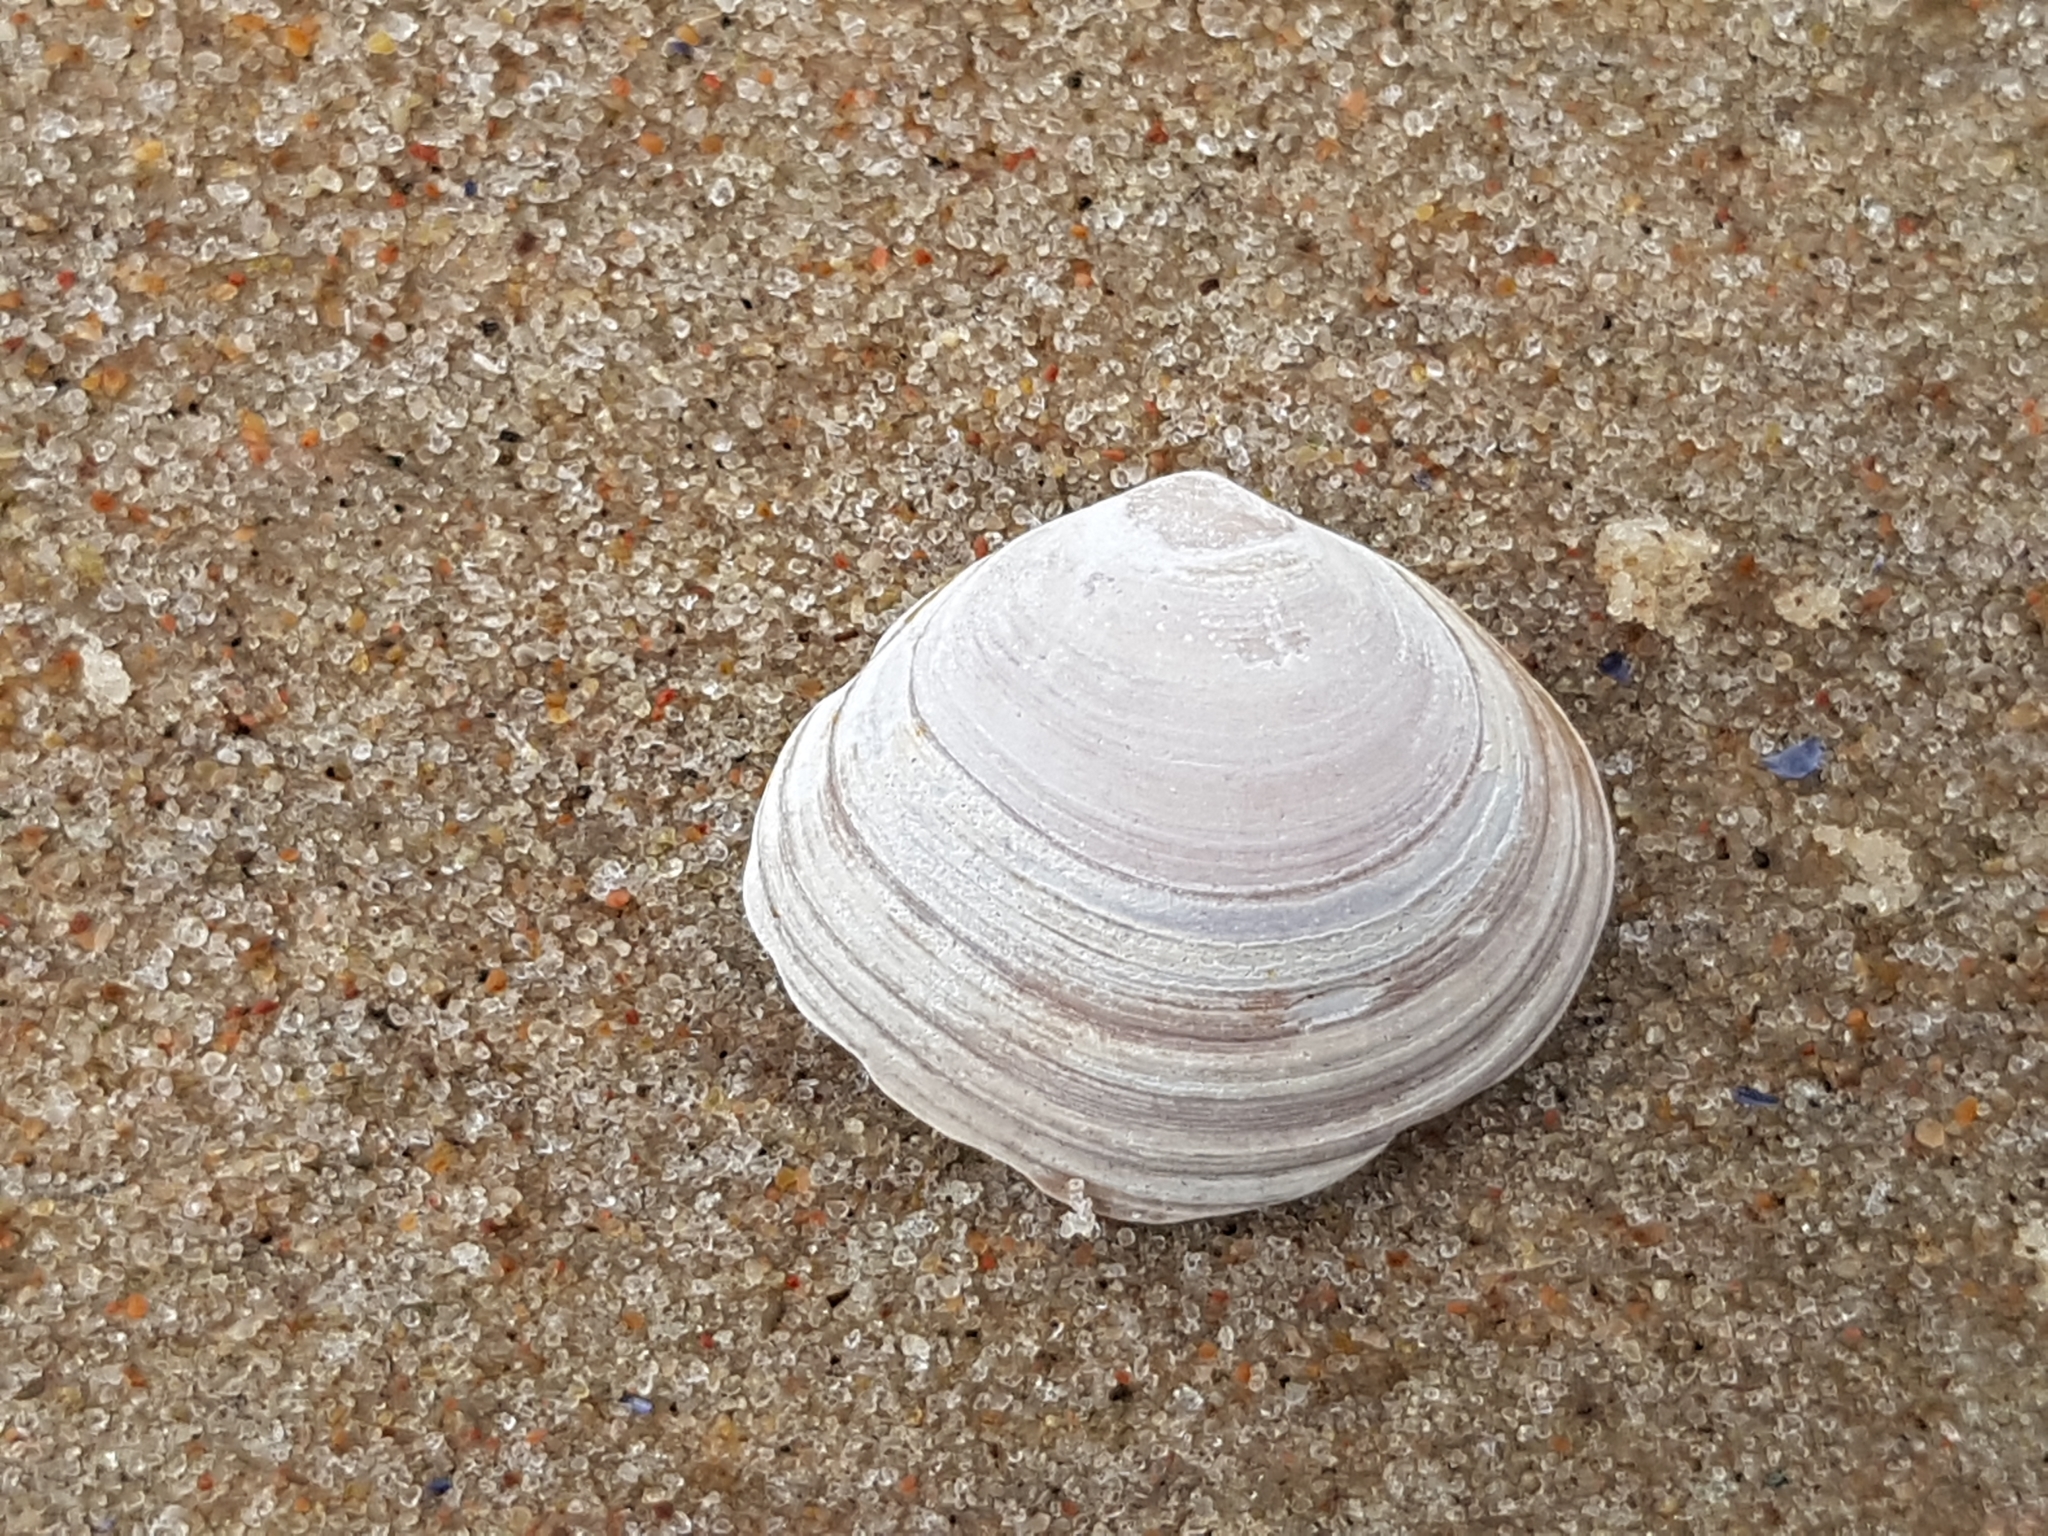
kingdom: Animalia
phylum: Mollusca
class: Bivalvia
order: Cardiida
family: Tellinidae
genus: Macoma
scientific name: Macoma balthica
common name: Baltic tellin
